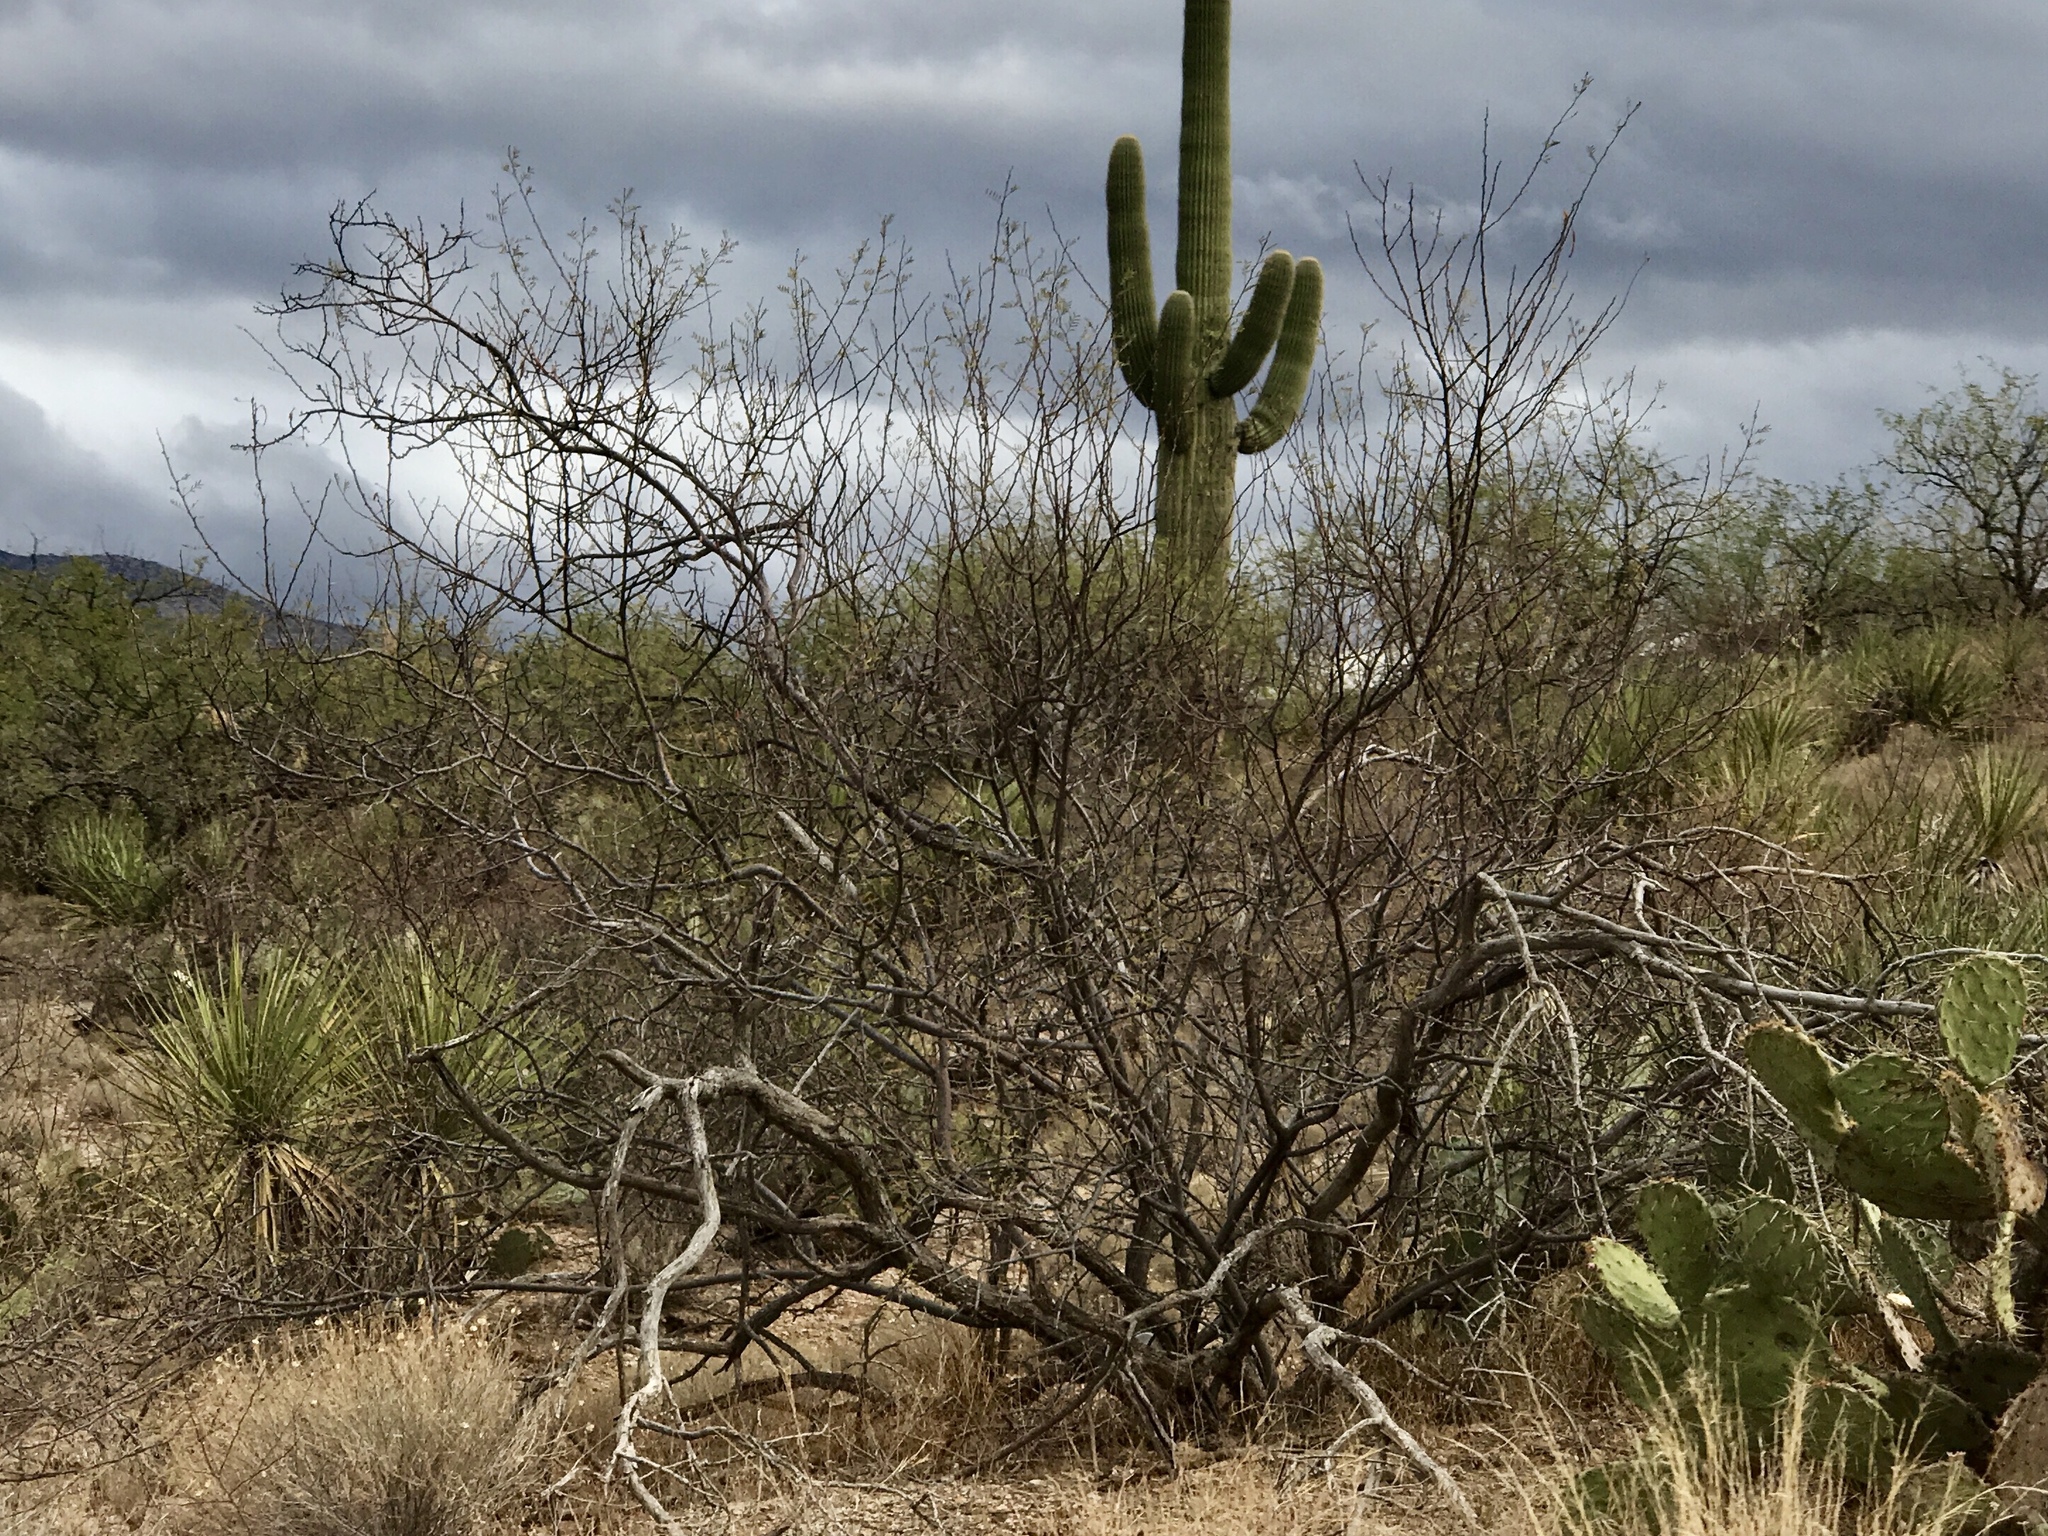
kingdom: Plantae
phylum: Tracheophyta
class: Magnoliopsida
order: Fabales
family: Fabaceae
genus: Vachellia
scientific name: Vachellia constricta
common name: Mescat acacia
